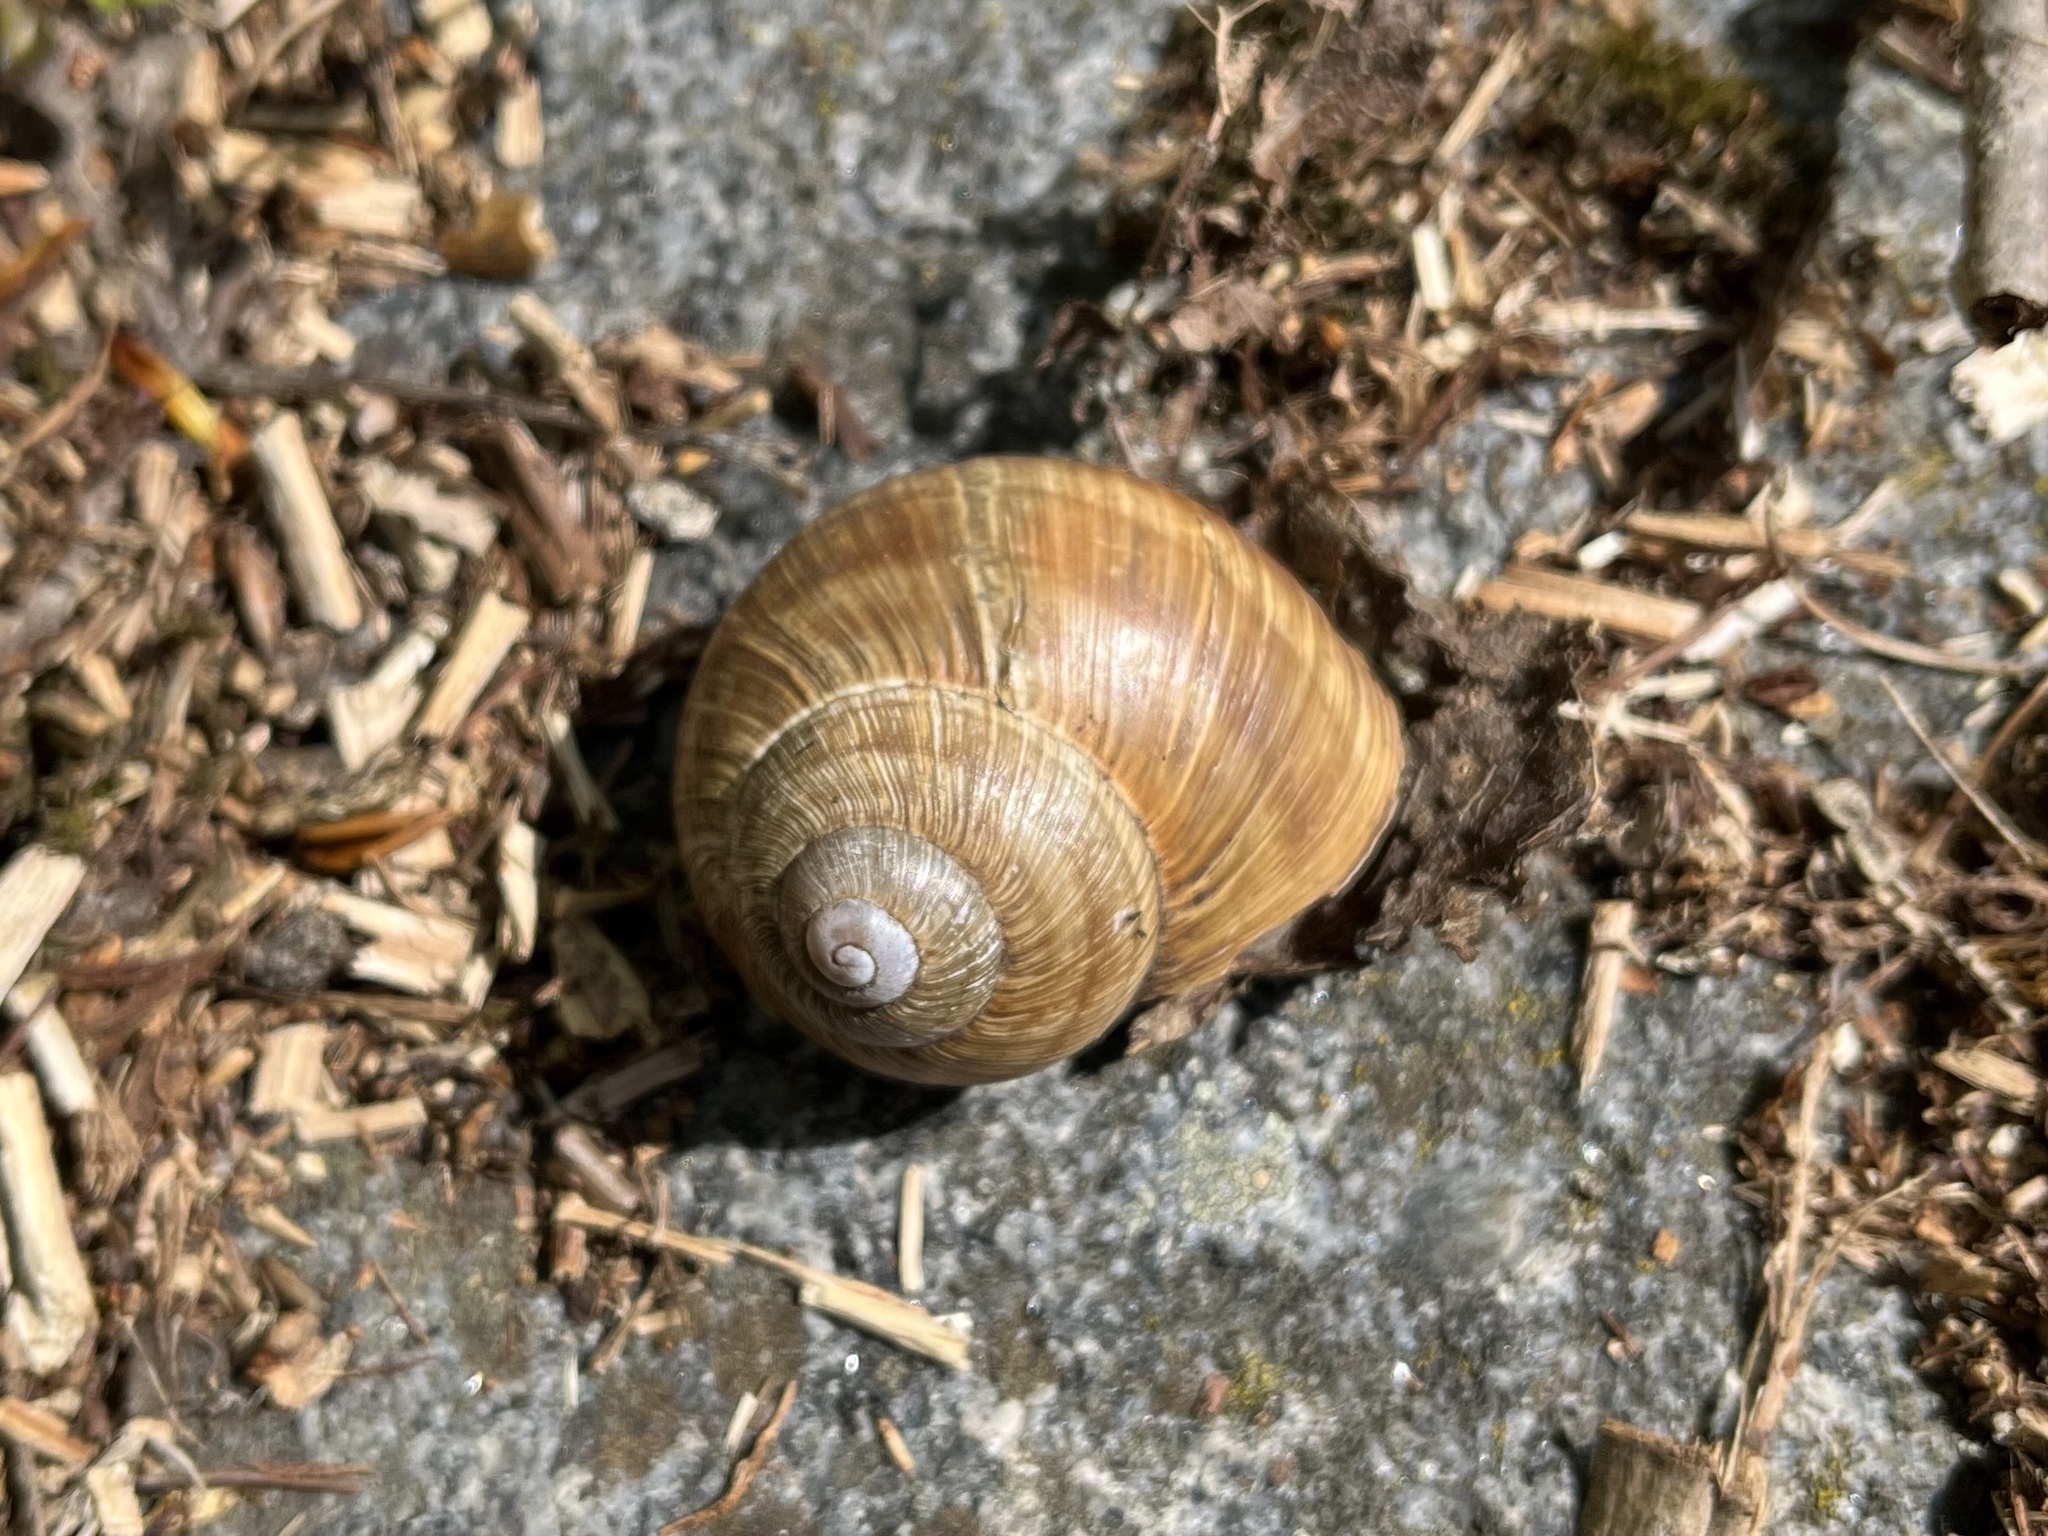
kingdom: Animalia
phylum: Mollusca
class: Gastropoda
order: Stylommatophora
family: Helicidae
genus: Helix
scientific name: Helix pomatia
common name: Roman snail
